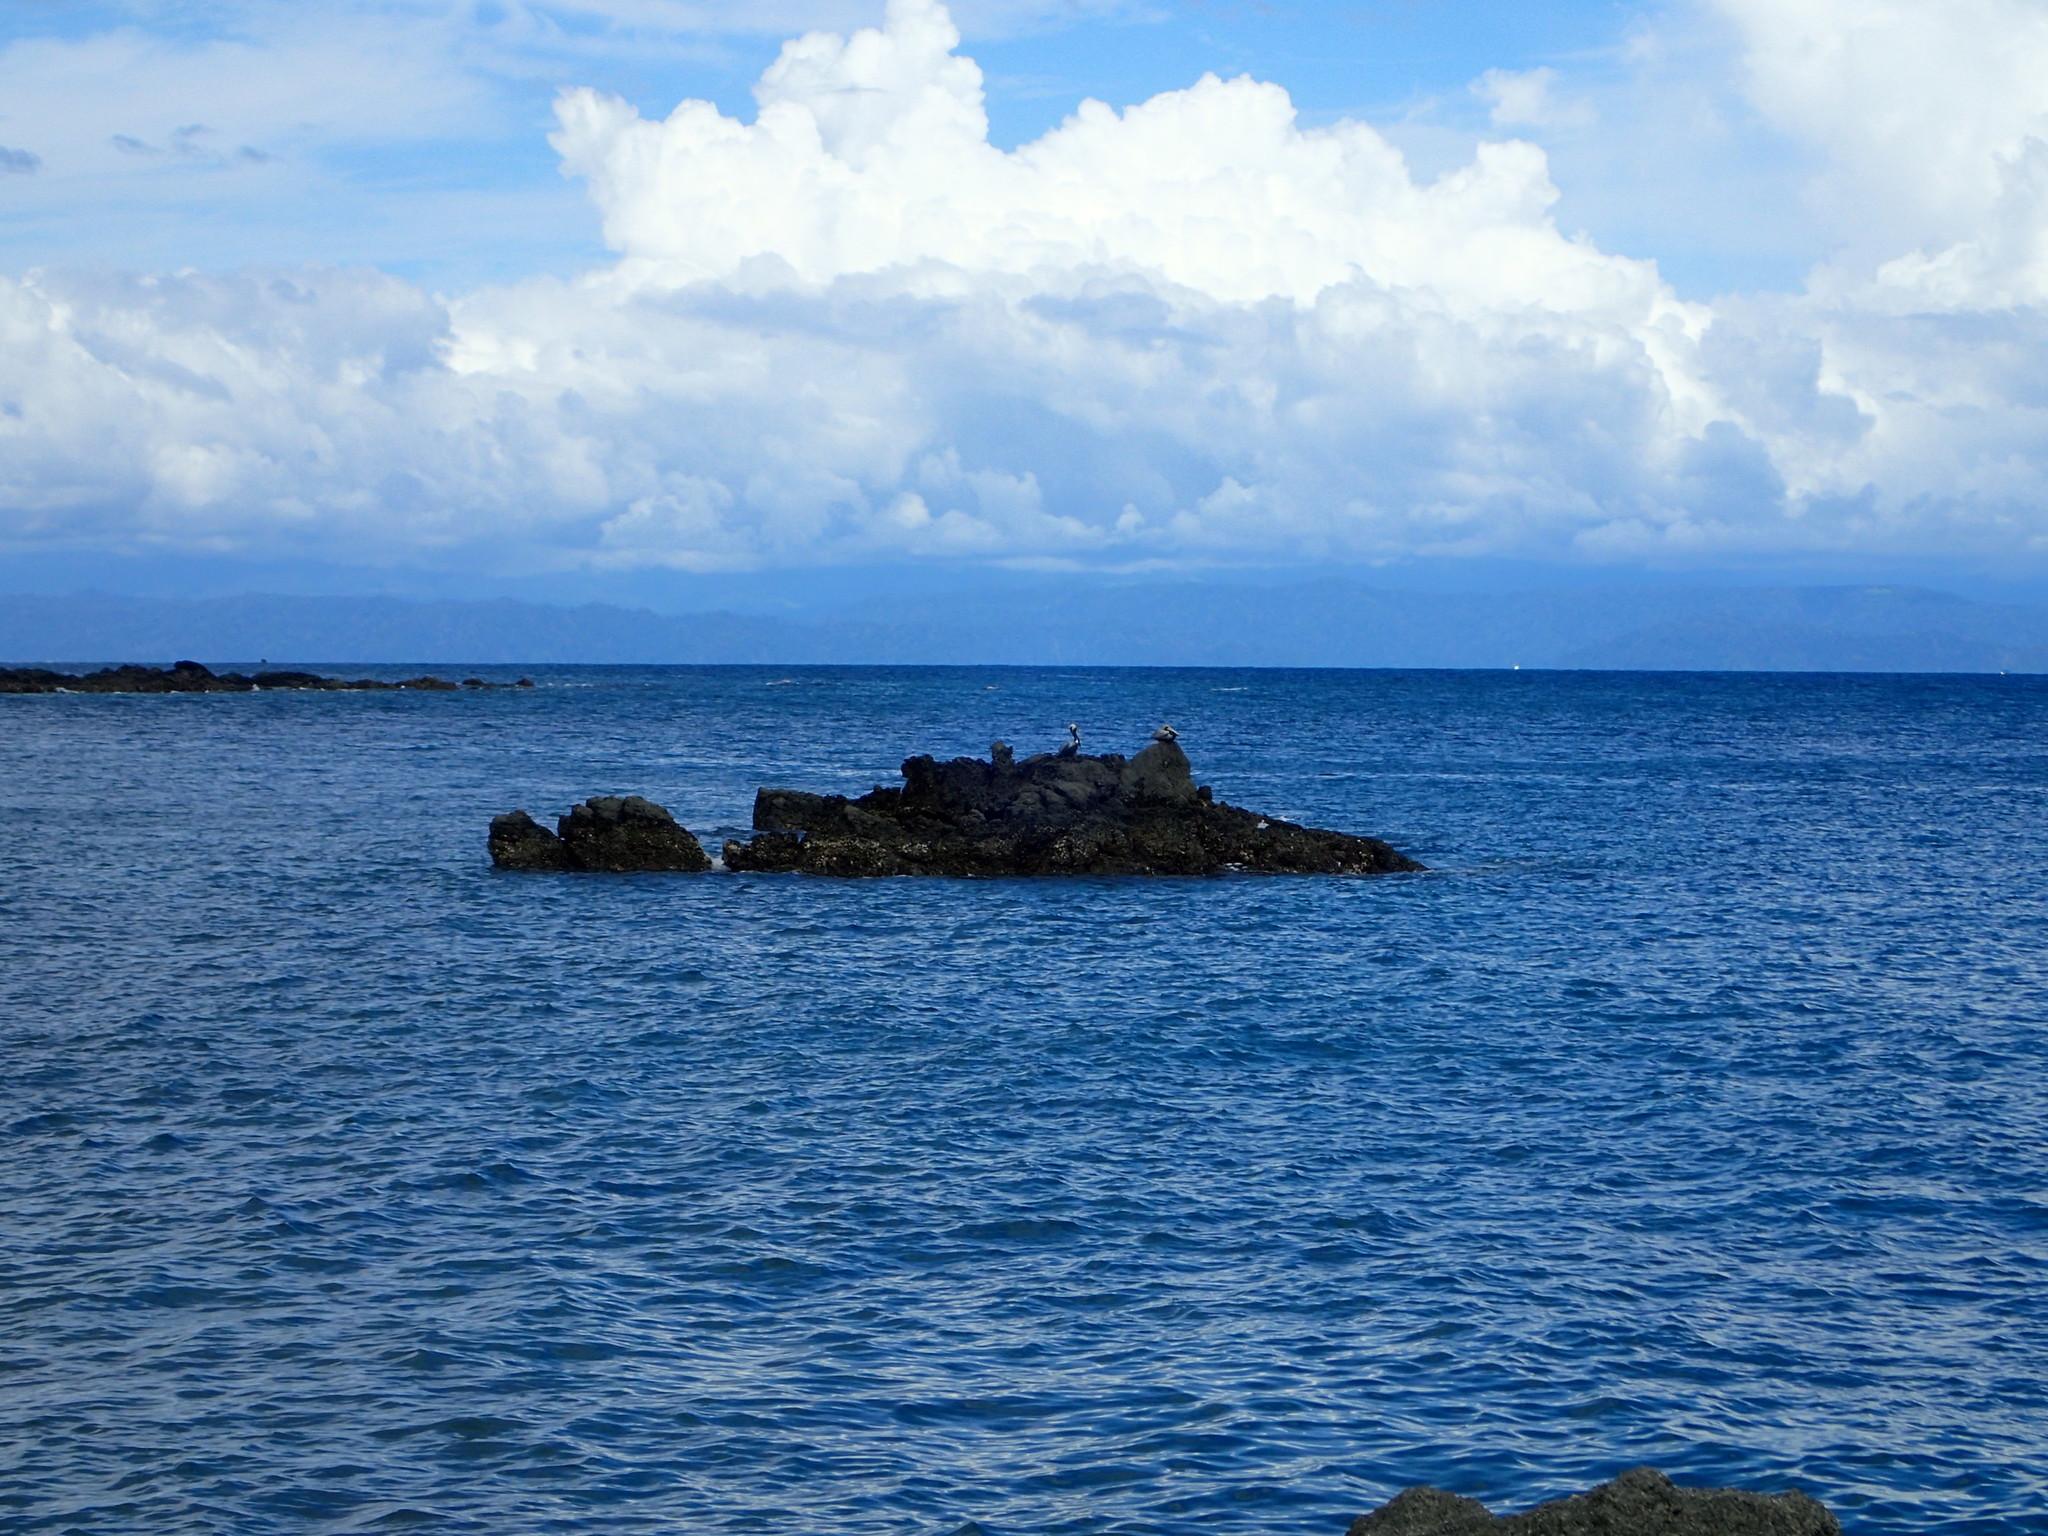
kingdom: Animalia
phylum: Chordata
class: Aves
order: Pelecaniformes
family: Pelecanidae
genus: Pelecanus
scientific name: Pelecanus occidentalis
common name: Brown pelican
